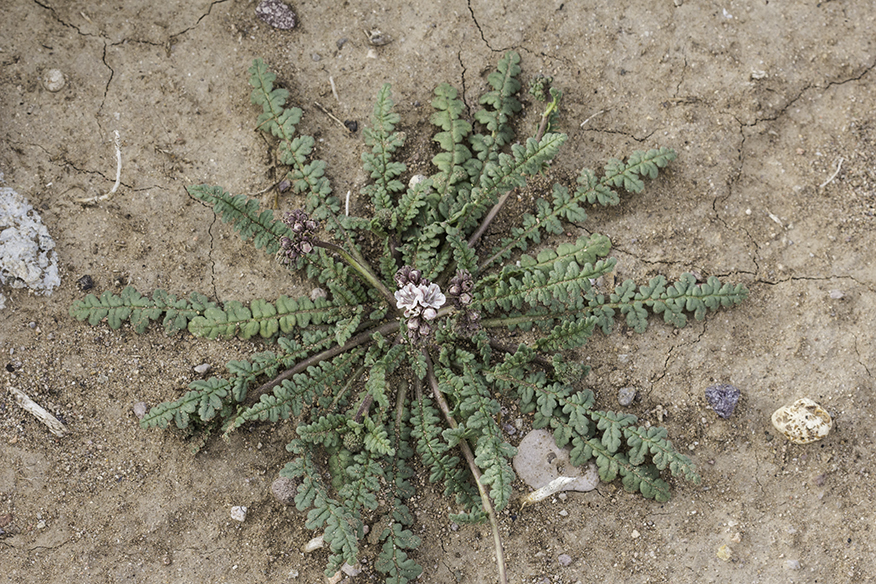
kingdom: Plantae
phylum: Tracheophyta
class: Magnoliopsida
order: Boraginales
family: Hydrophyllaceae
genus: Phacelia
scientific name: Phacelia arizonica
